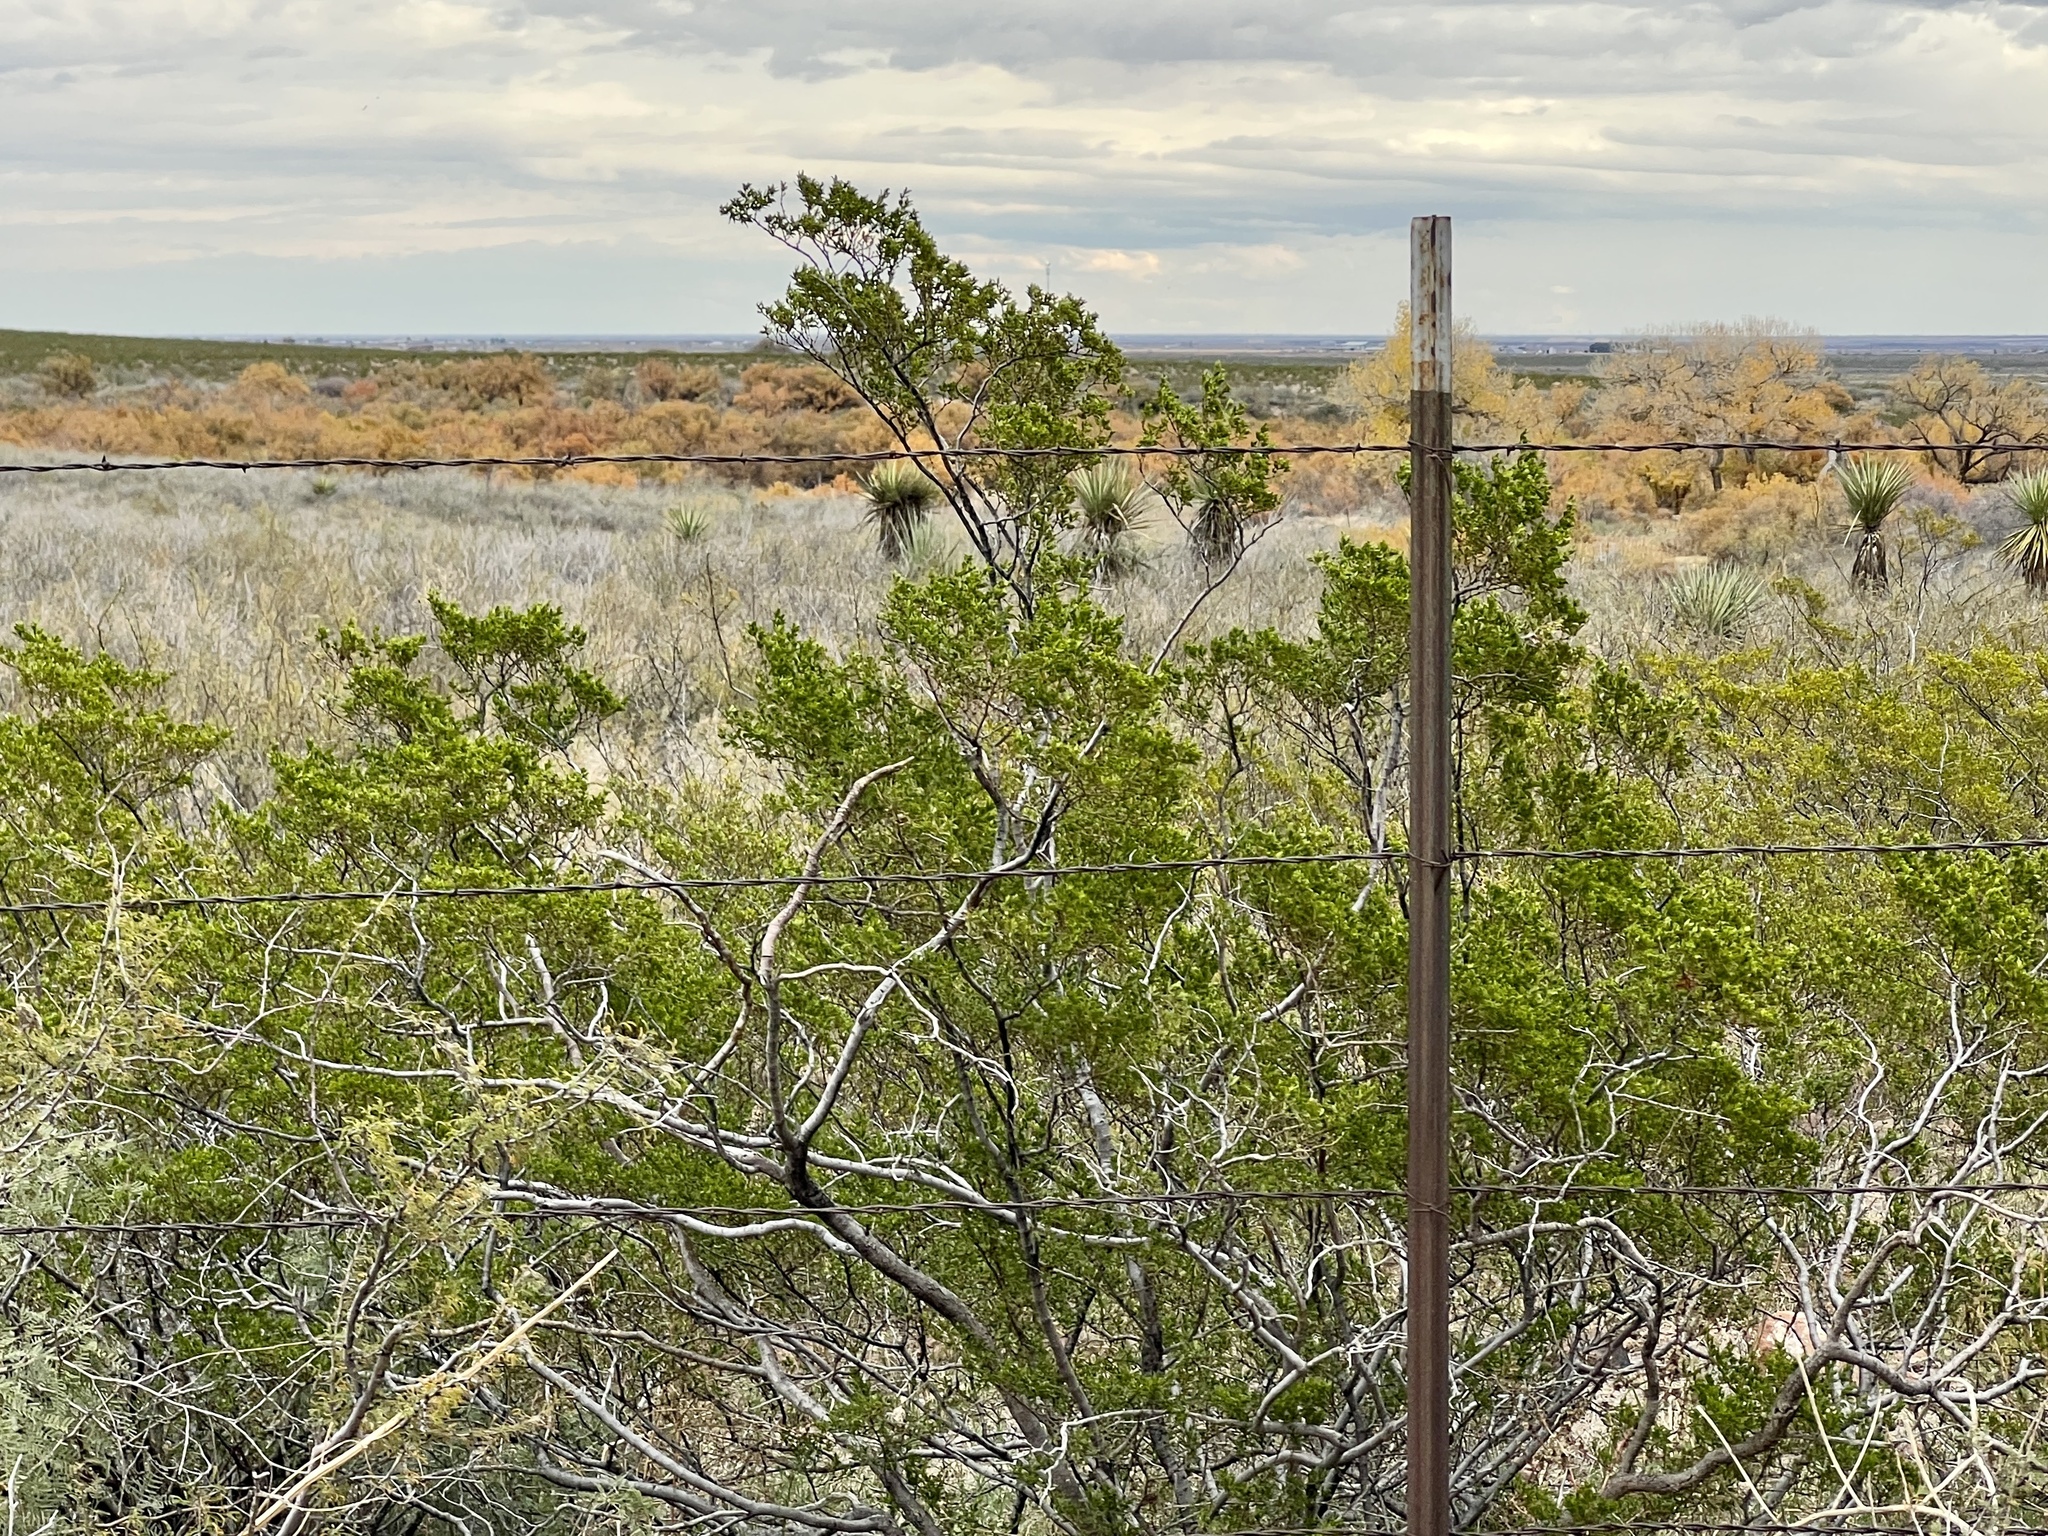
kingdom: Plantae
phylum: Tracheophyta
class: Magnoliopsida
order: Zygophyllales
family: Zygophyllaceae
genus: Larrea
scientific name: Larrea tridentata
